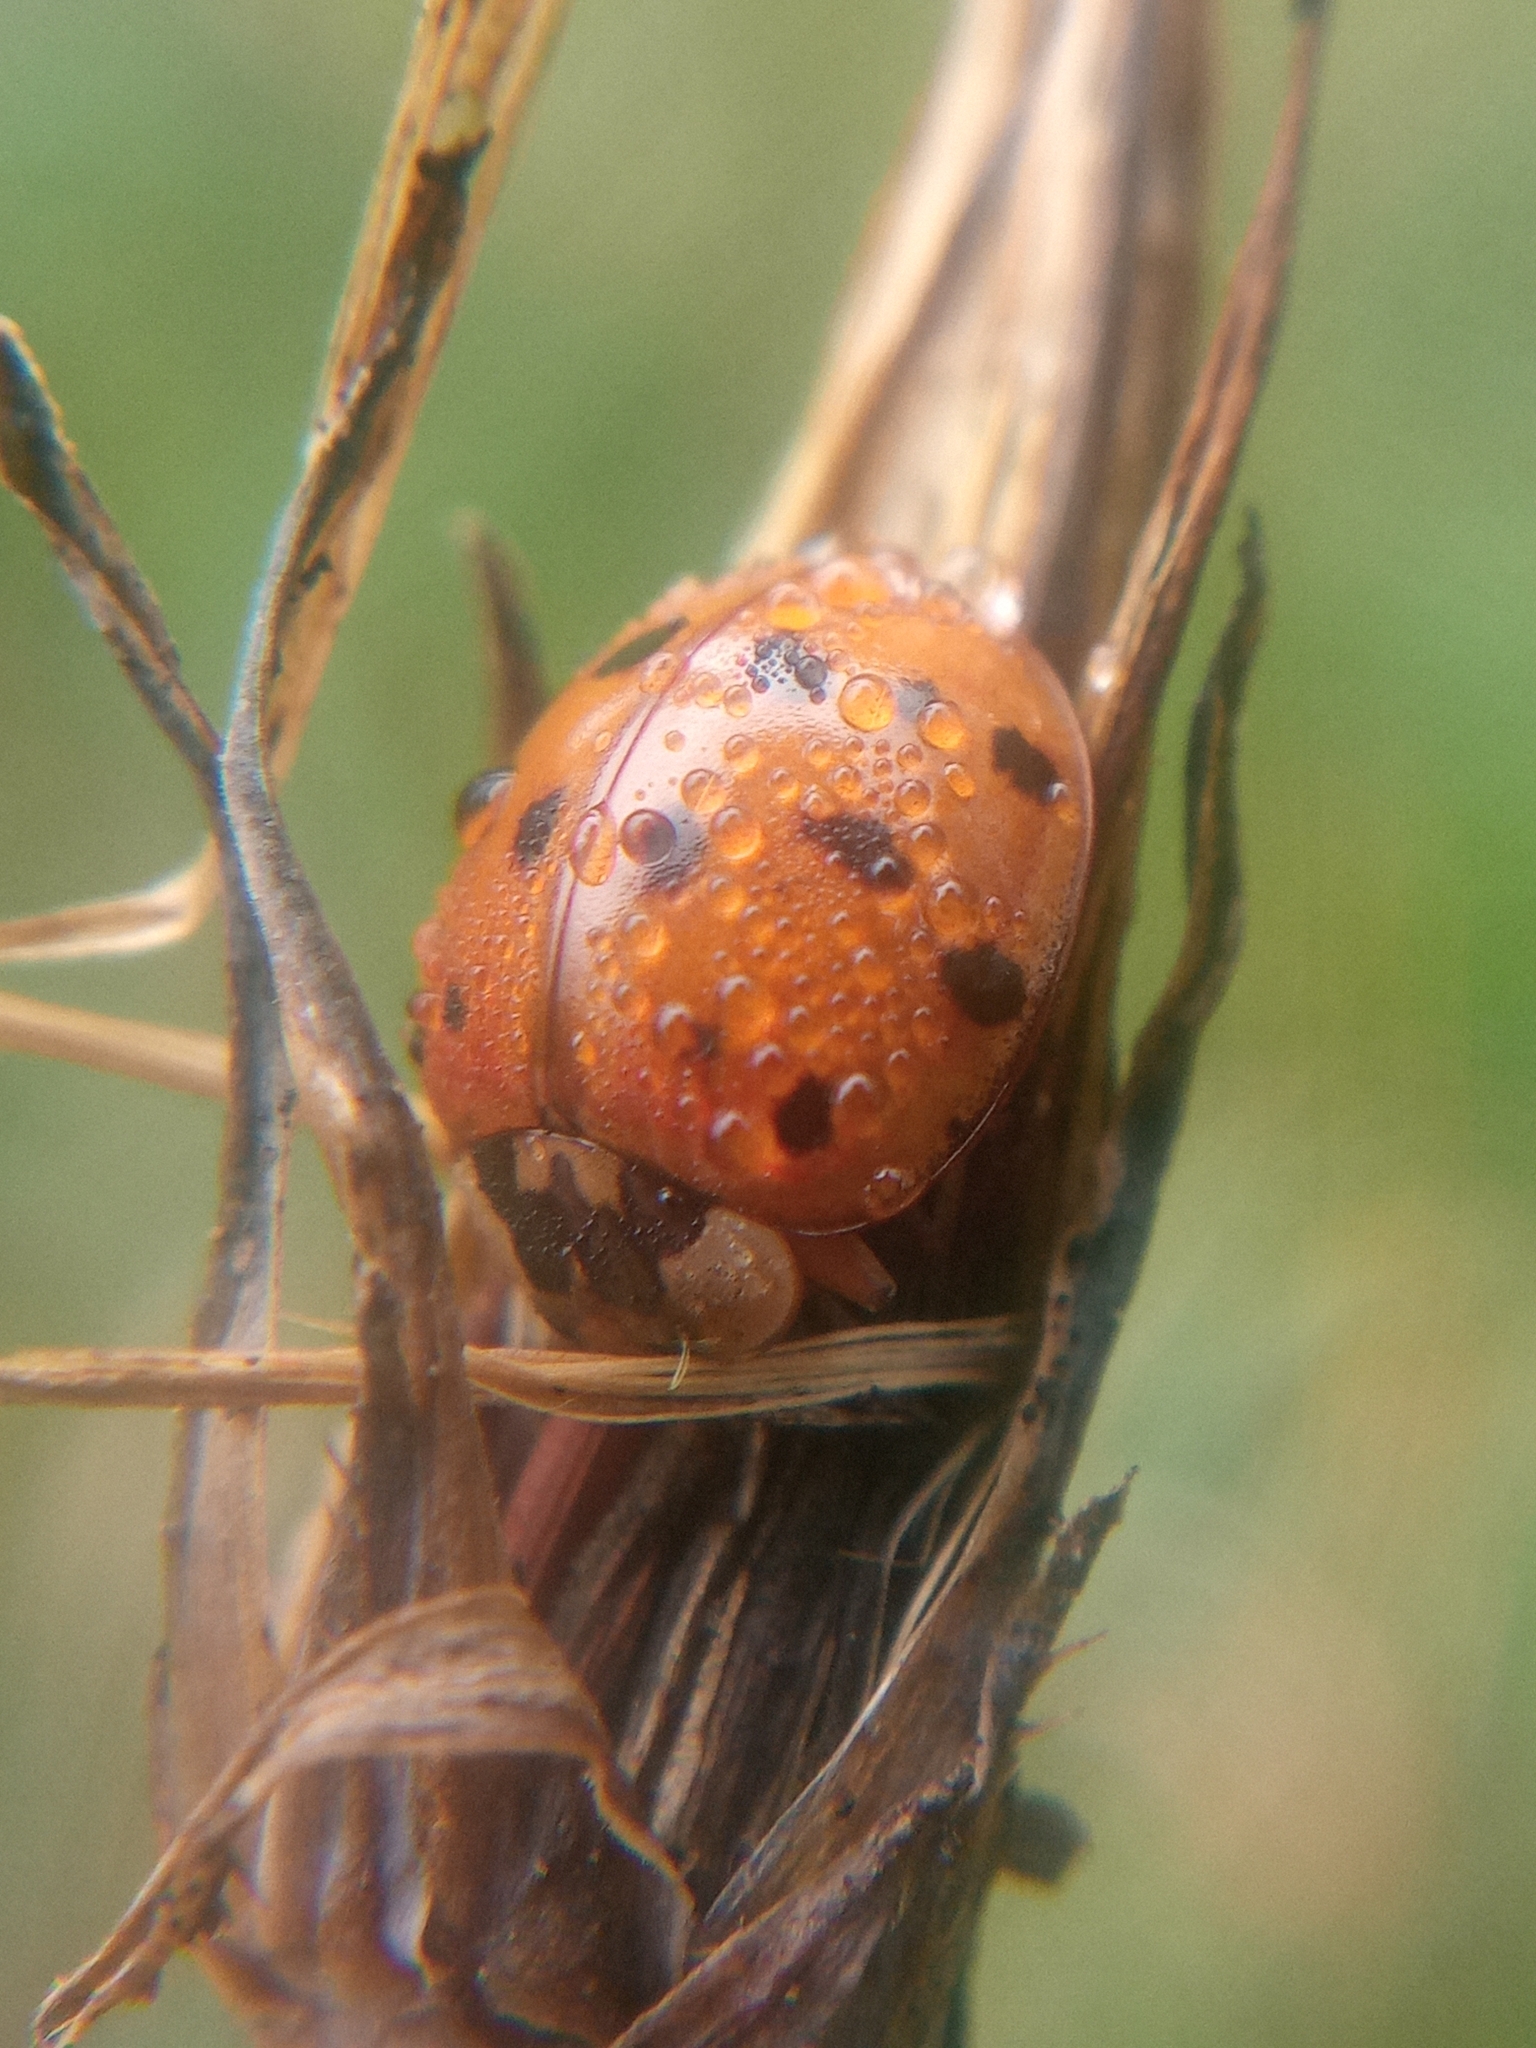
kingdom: Animalia
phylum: Arthropoda
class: Insecta
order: Coleoptera
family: Coccinellidae
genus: Harmonia
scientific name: Harmonia axyridis
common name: Harlequin ladybird
